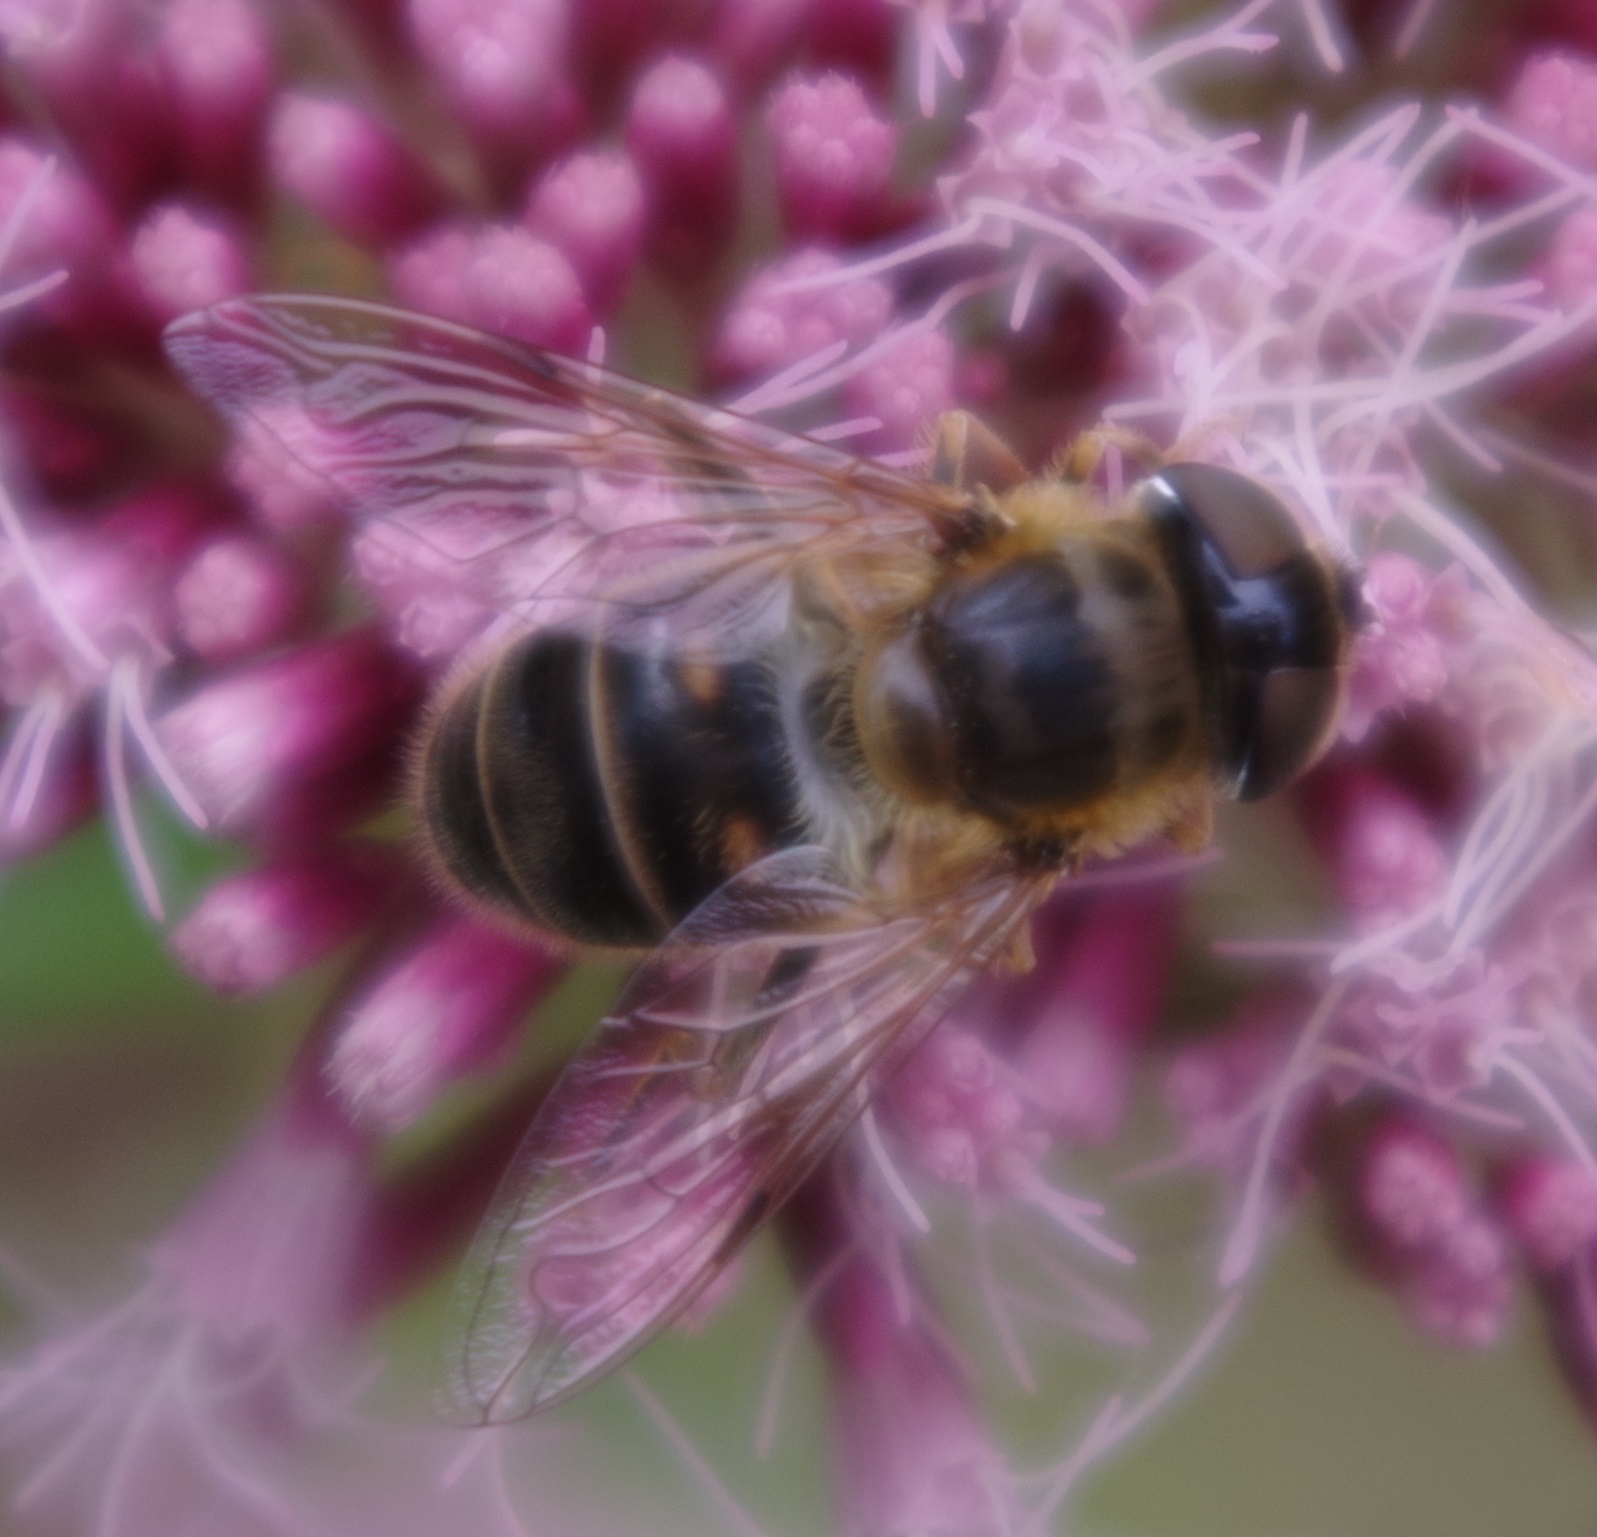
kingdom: Animalia
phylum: Arthropoda
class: Insecta
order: Diptera
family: Syrphidae
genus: Eristalis
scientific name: Eristalis pertinax
